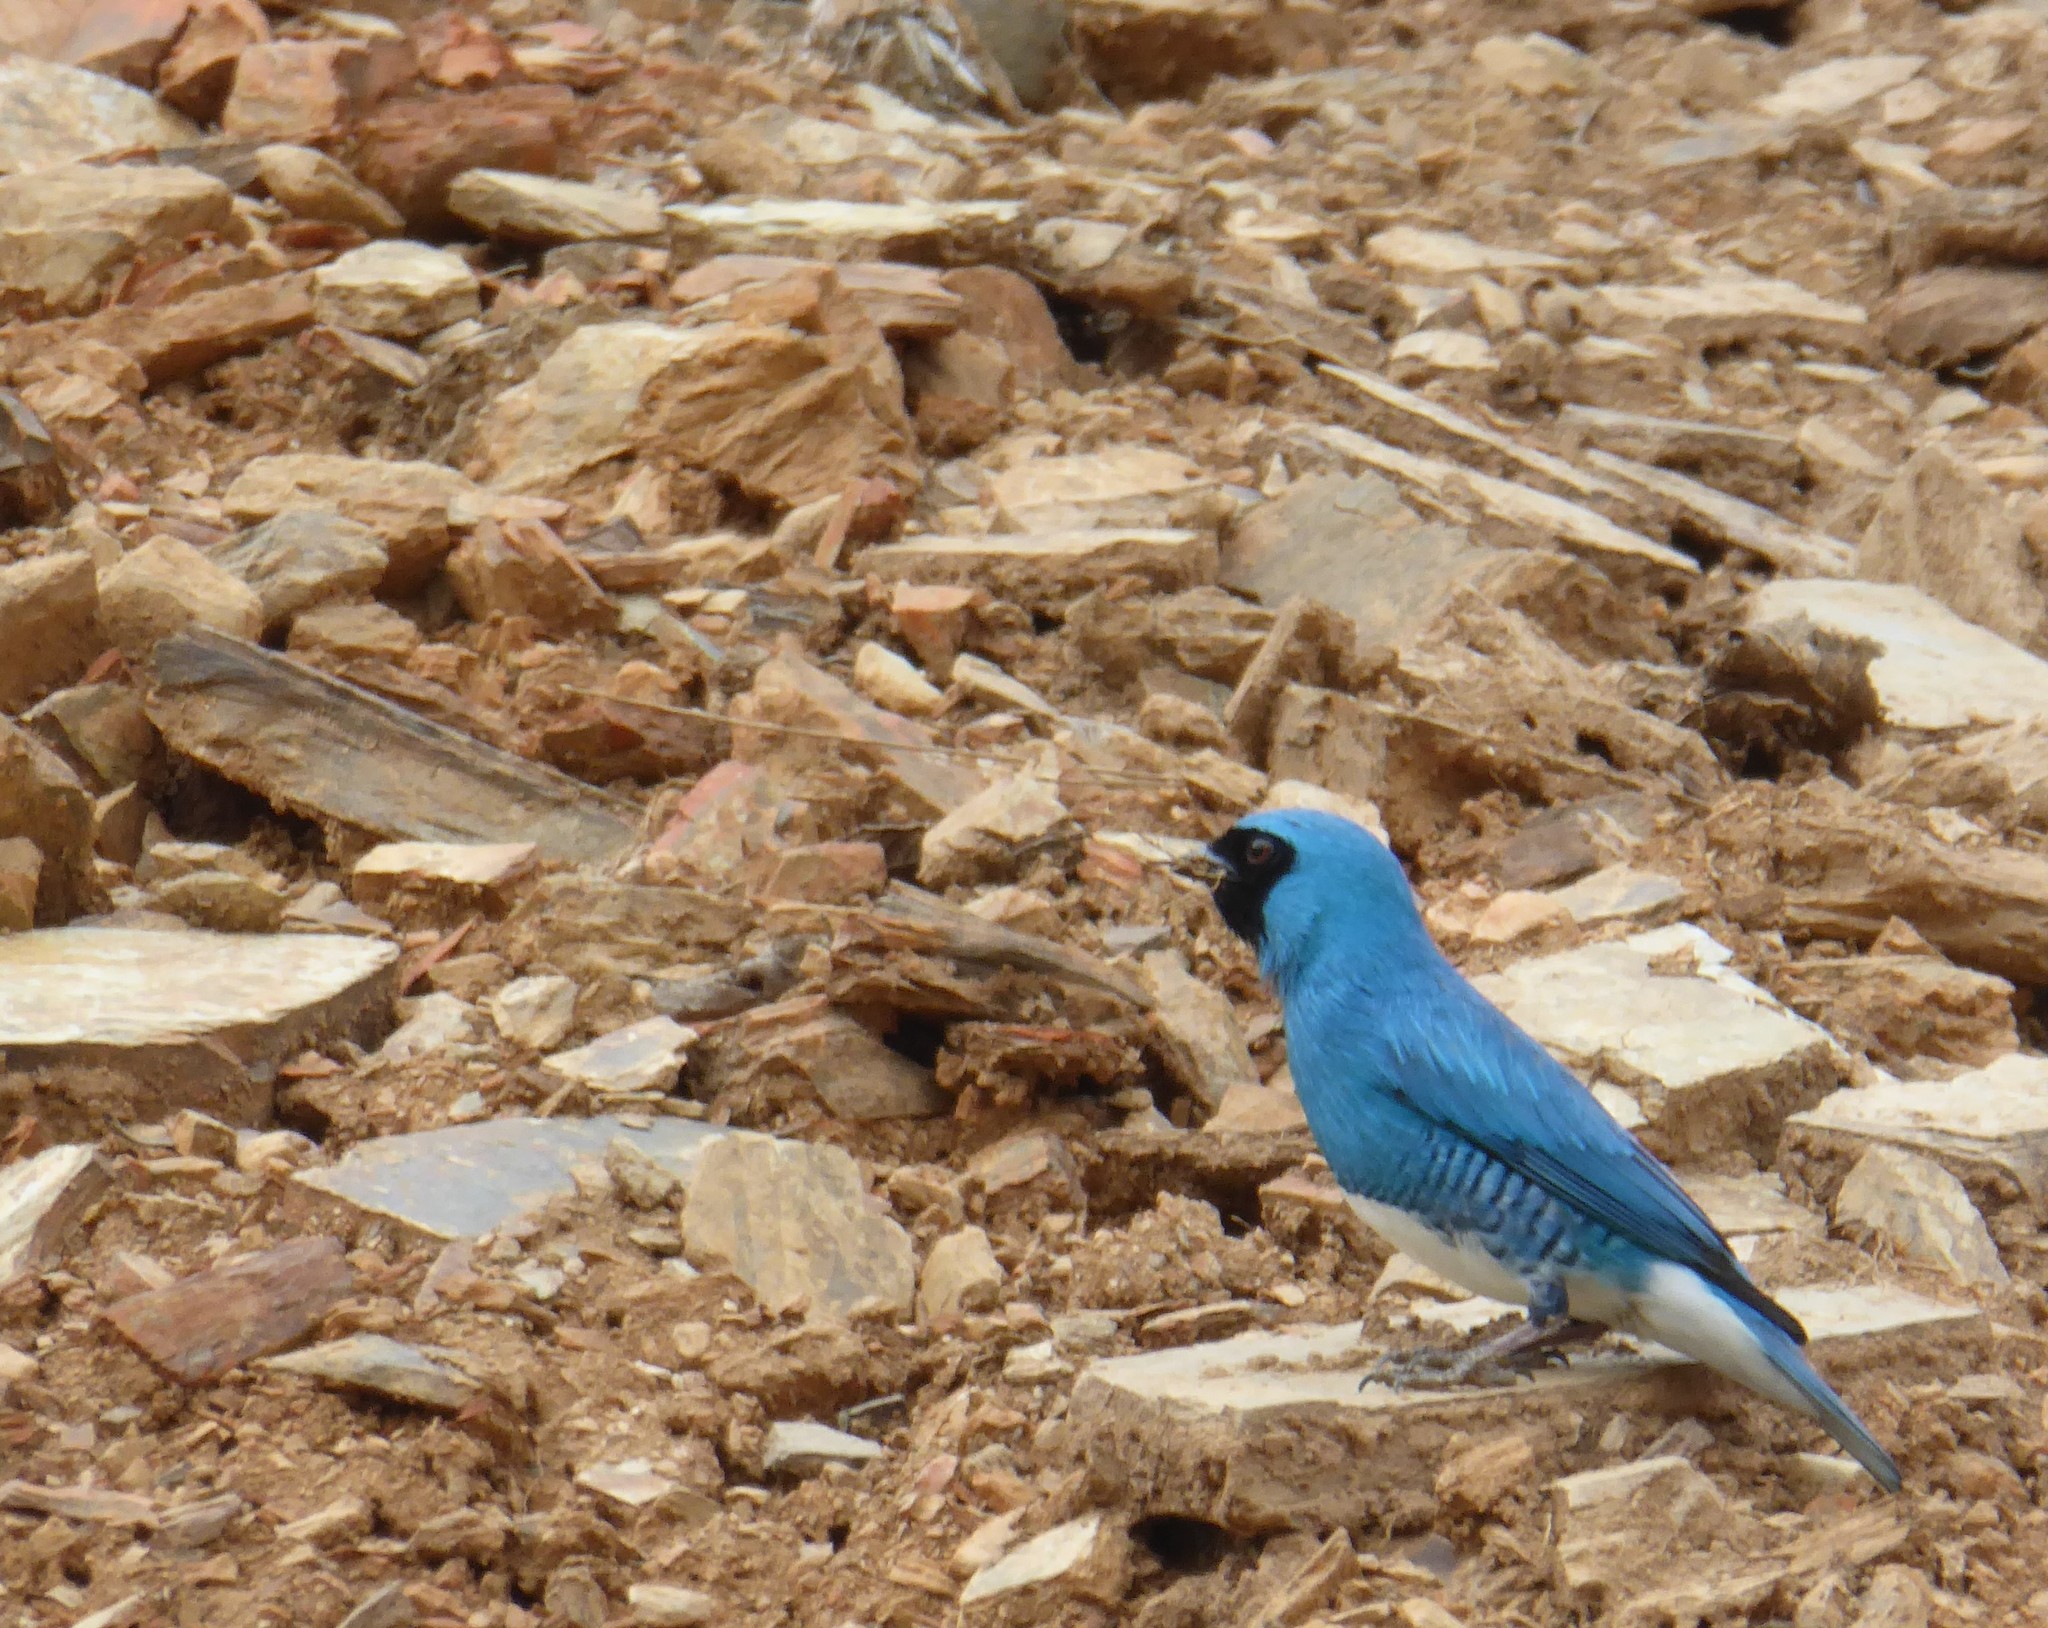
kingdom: Animalia
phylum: Chordata
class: Aves
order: Passeriformes
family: Thraupidae
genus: Tersina
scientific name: Tersina viridis
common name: Swallow tanager
